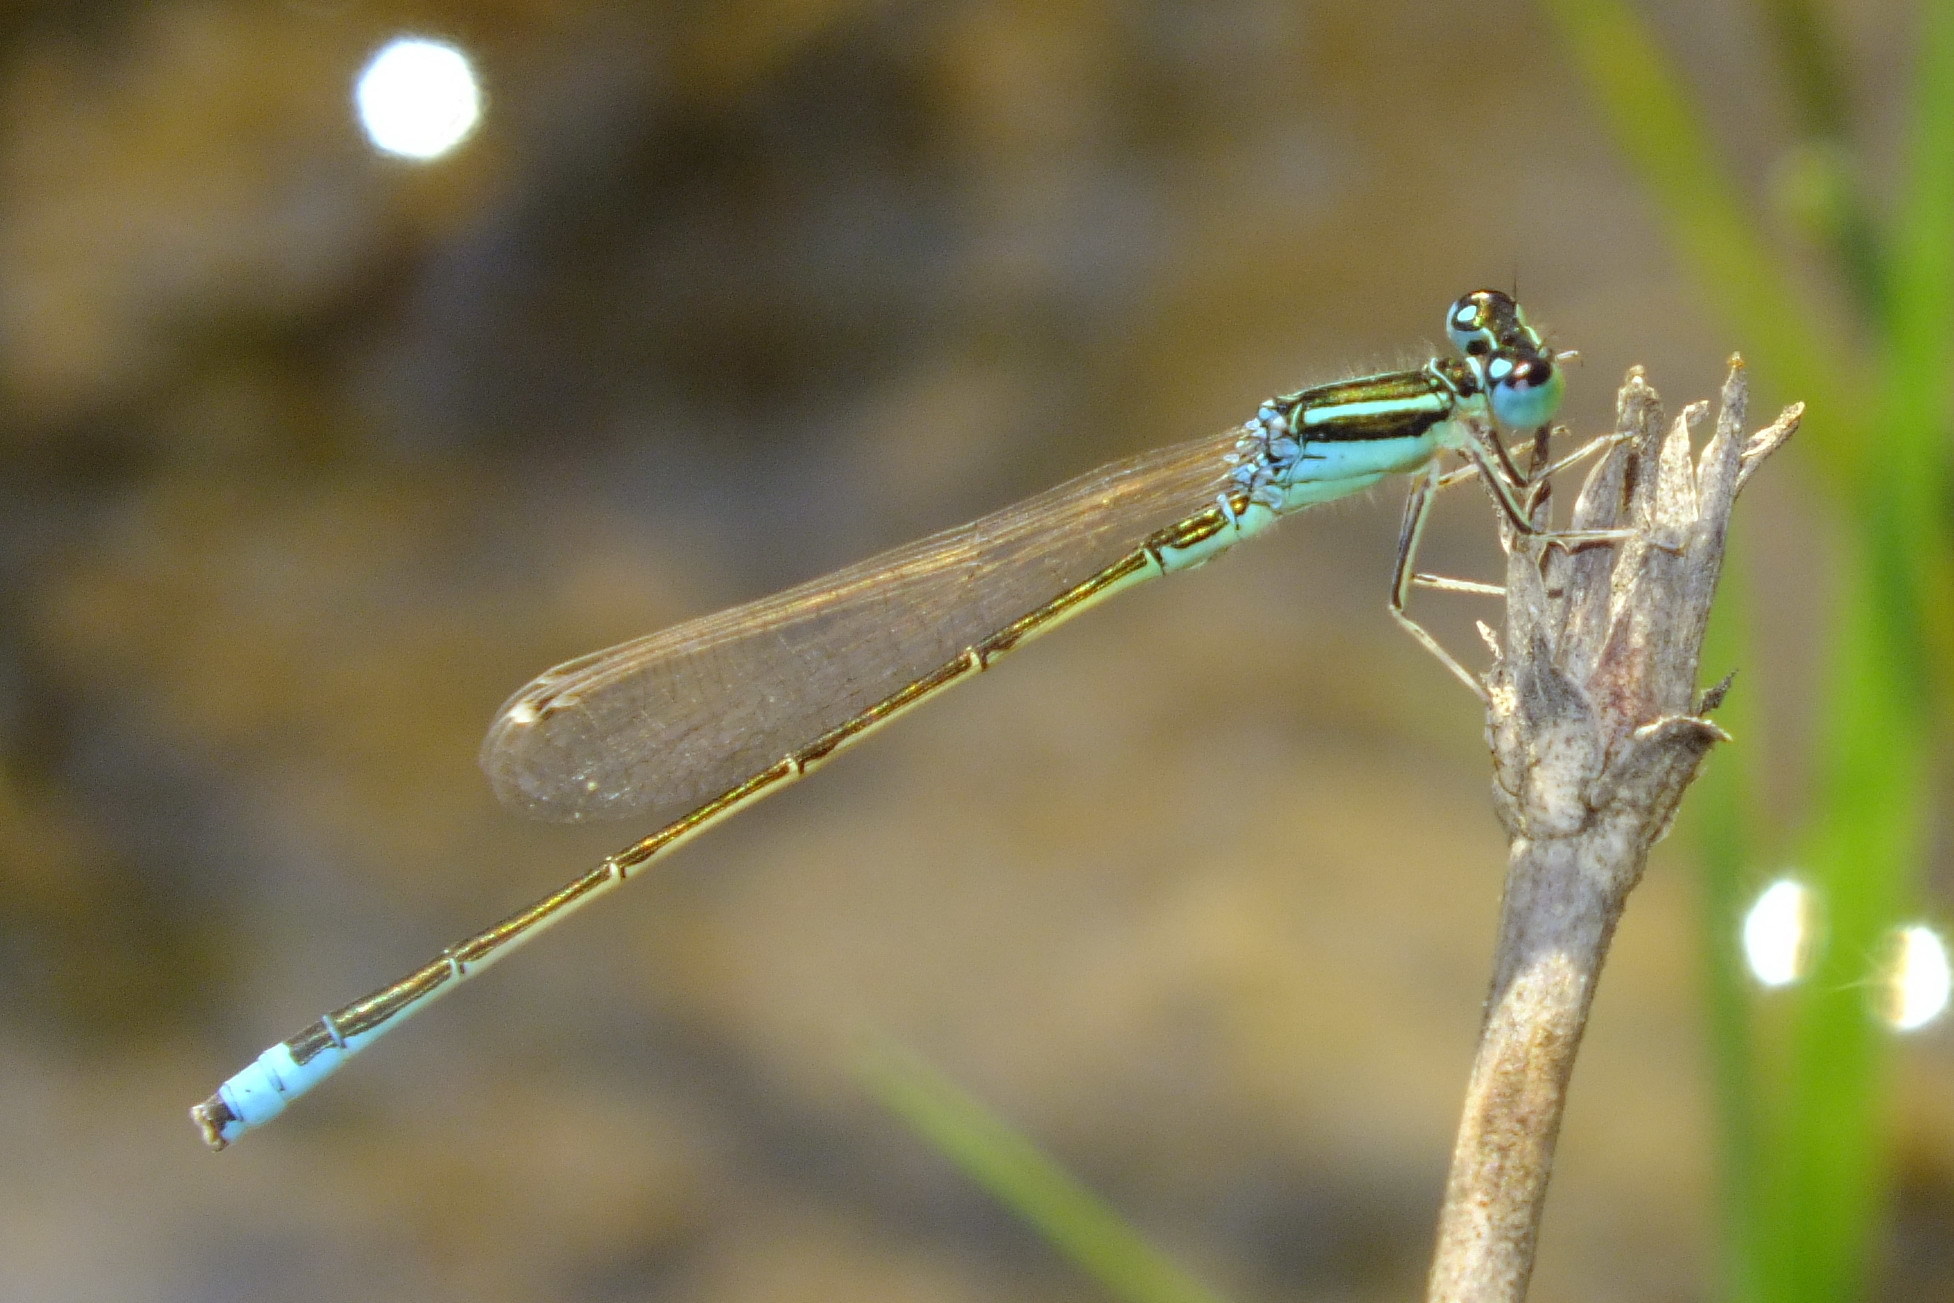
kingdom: Animalia
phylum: Arthropoda
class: Insecta
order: Odonata
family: Coenagrionidae
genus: Ischnura
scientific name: Ischnura pumilio
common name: Scarce blue-tailed damselfly
